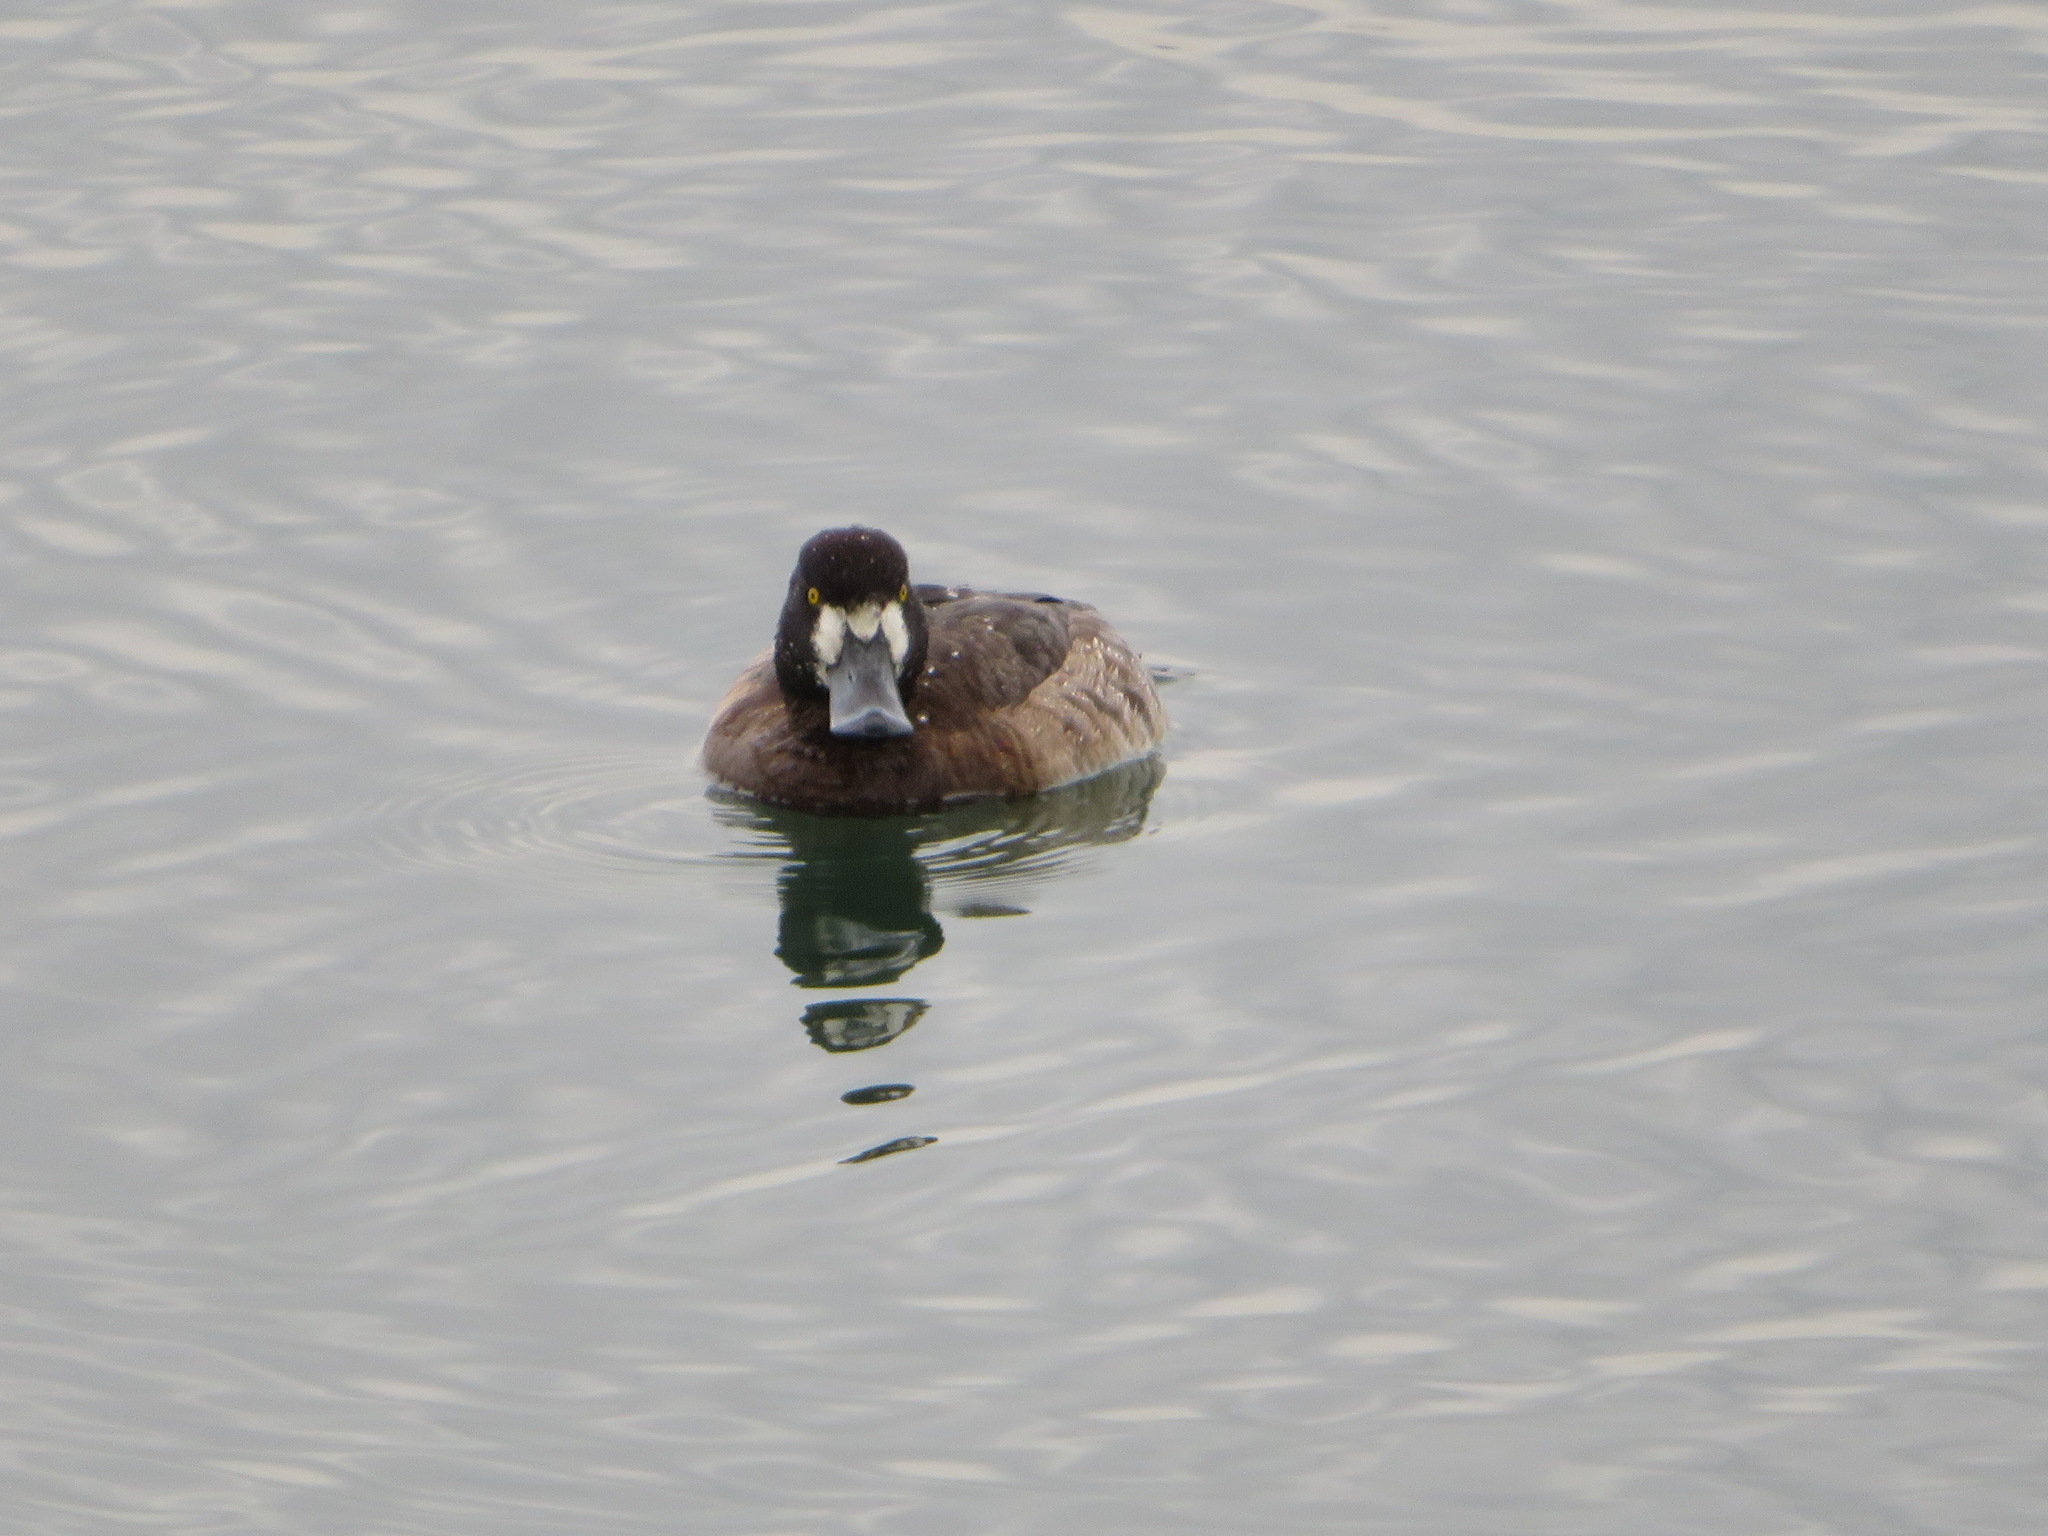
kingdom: Animalia
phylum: Chordata
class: Aves
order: Anseriformes
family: Anatidae
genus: Aythya
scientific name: Aythya marila
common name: Greater scaup
